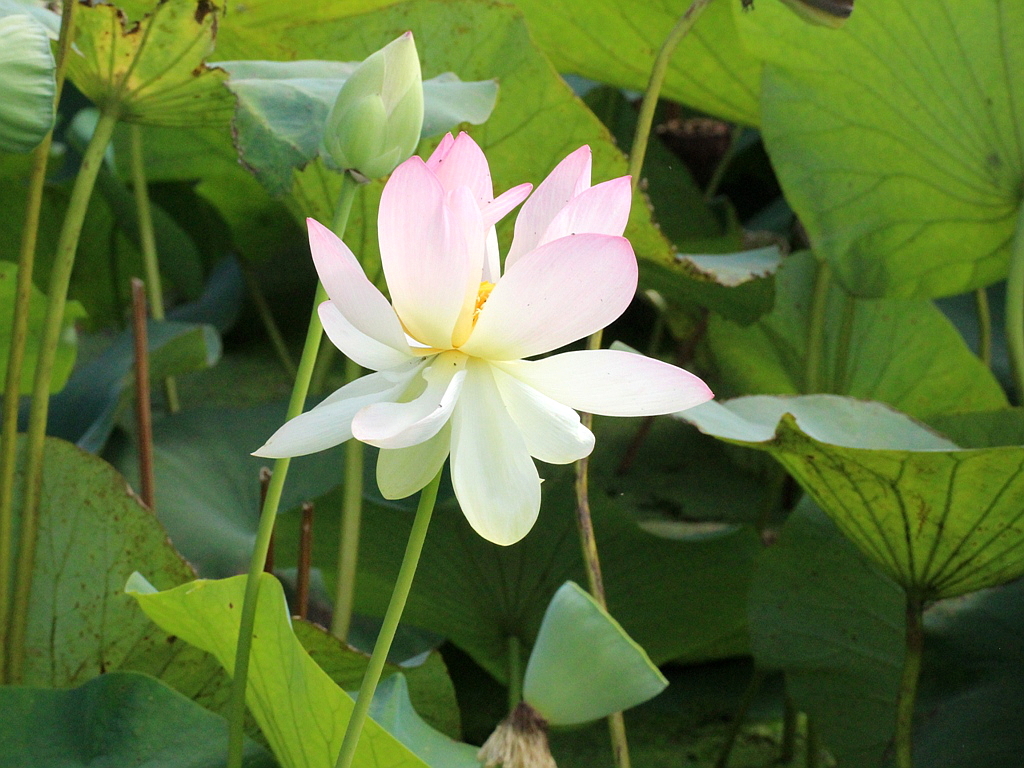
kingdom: Plantae
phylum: Tracheophyta
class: Magnoliopsida
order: Proteales
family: Nelumbonaceae
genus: Nelumbo
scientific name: Nelumbo nucifera
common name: Sacred lotus
